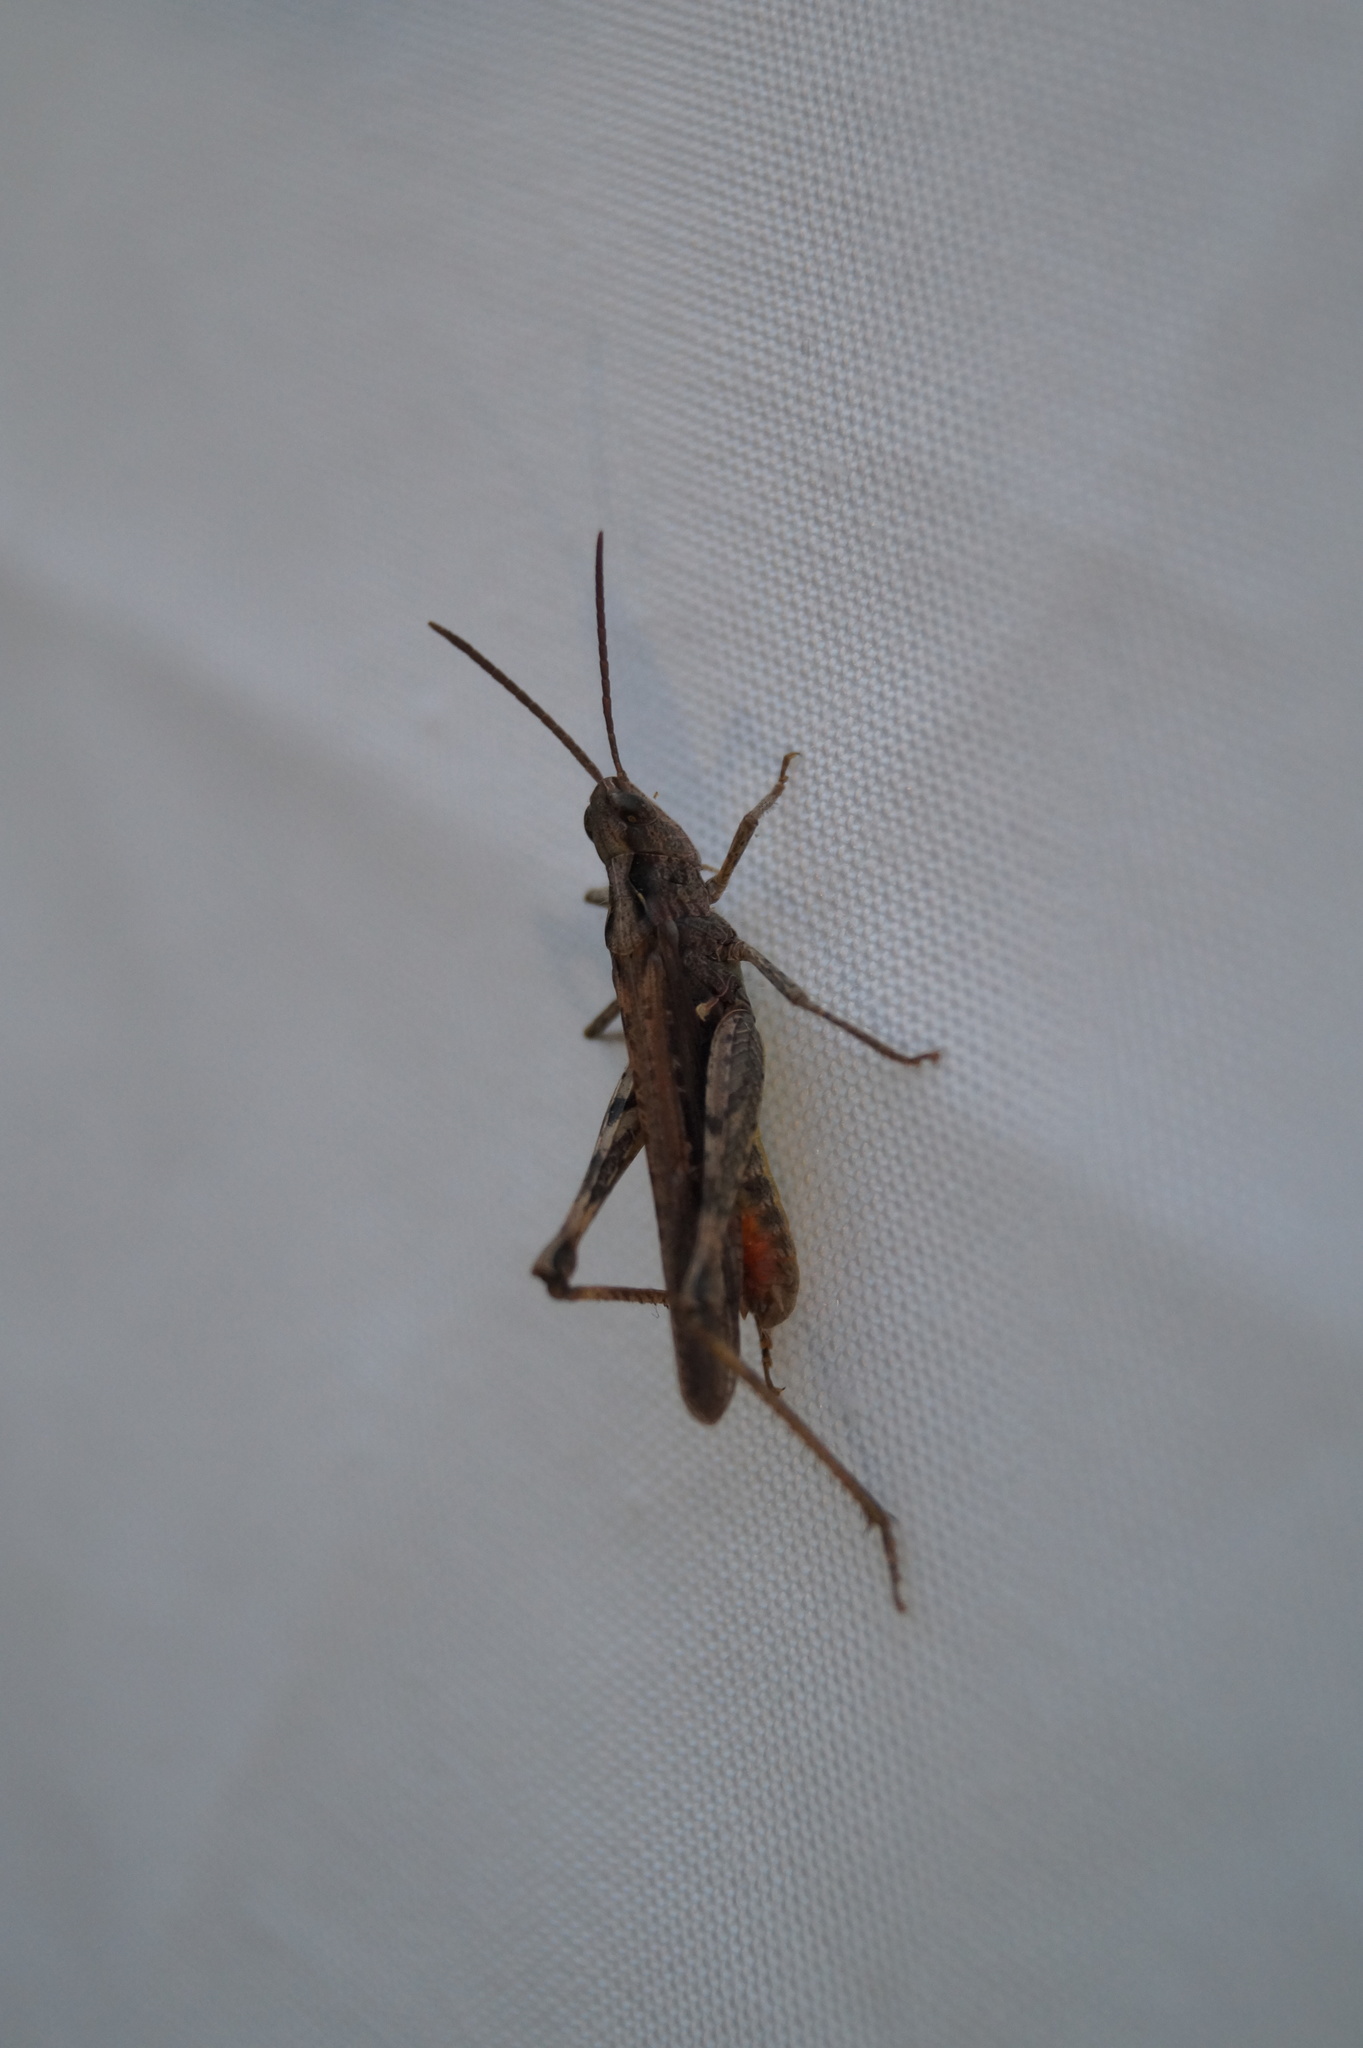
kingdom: Animalia
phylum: Arthropoda
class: Insecta
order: Orthoptera
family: Acrididae
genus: Chorthippus
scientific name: Chorthippus brunneus
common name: Field grasshopper
